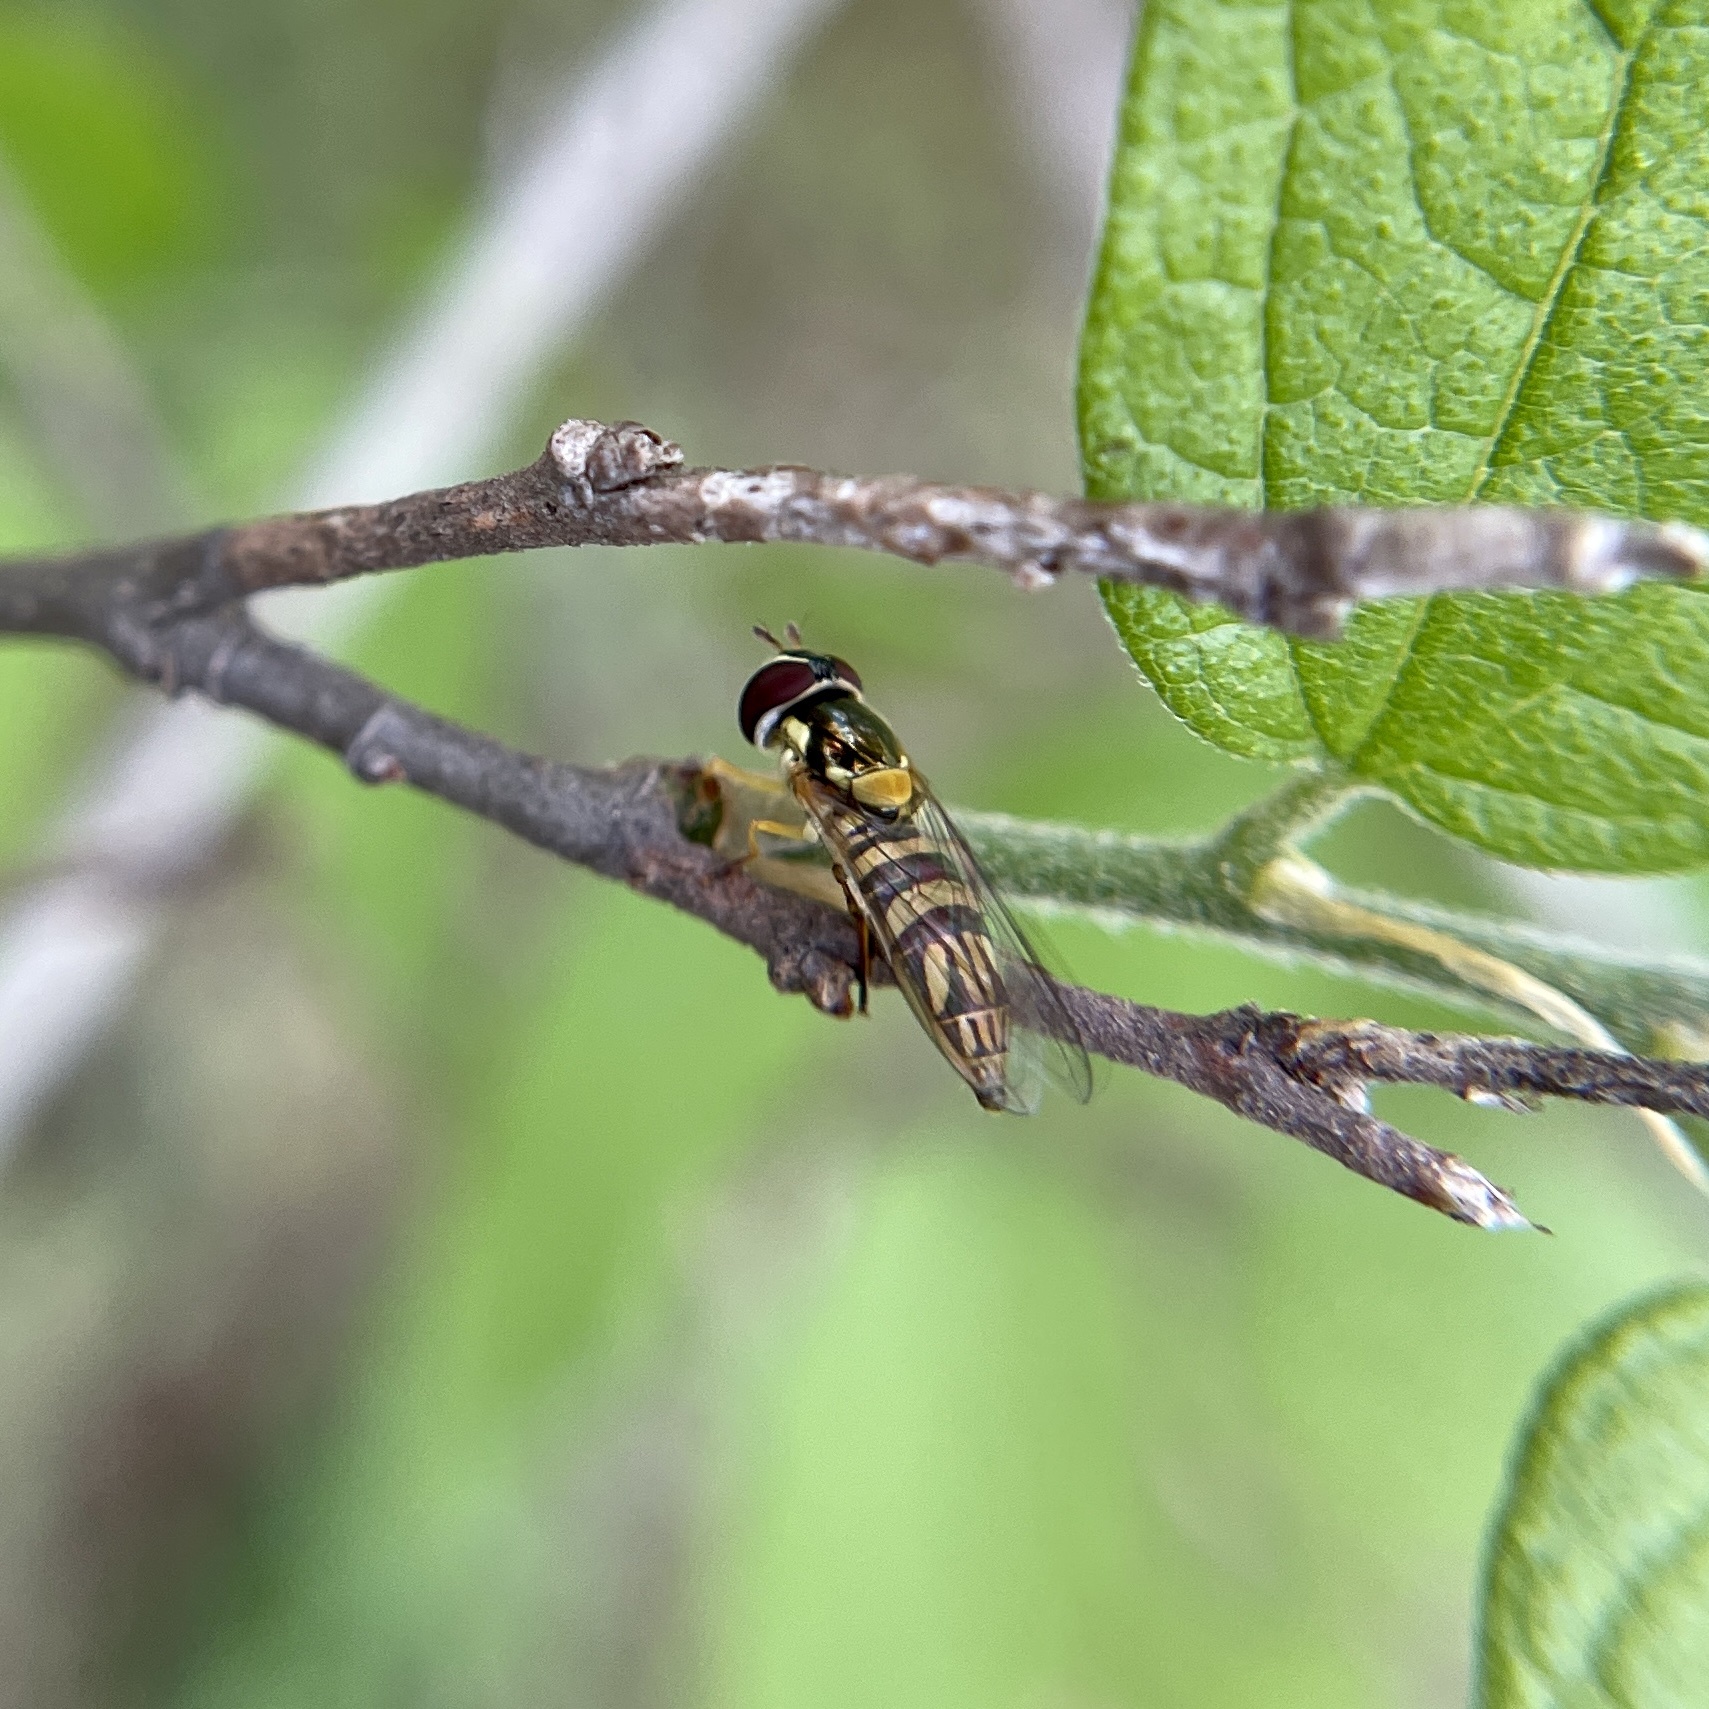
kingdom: Animalia
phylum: Arthropoda
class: Insecta
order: Diptera
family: Syrphidae
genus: Allograpta
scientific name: Allograpta obliqua
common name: Common oblique syrphid
